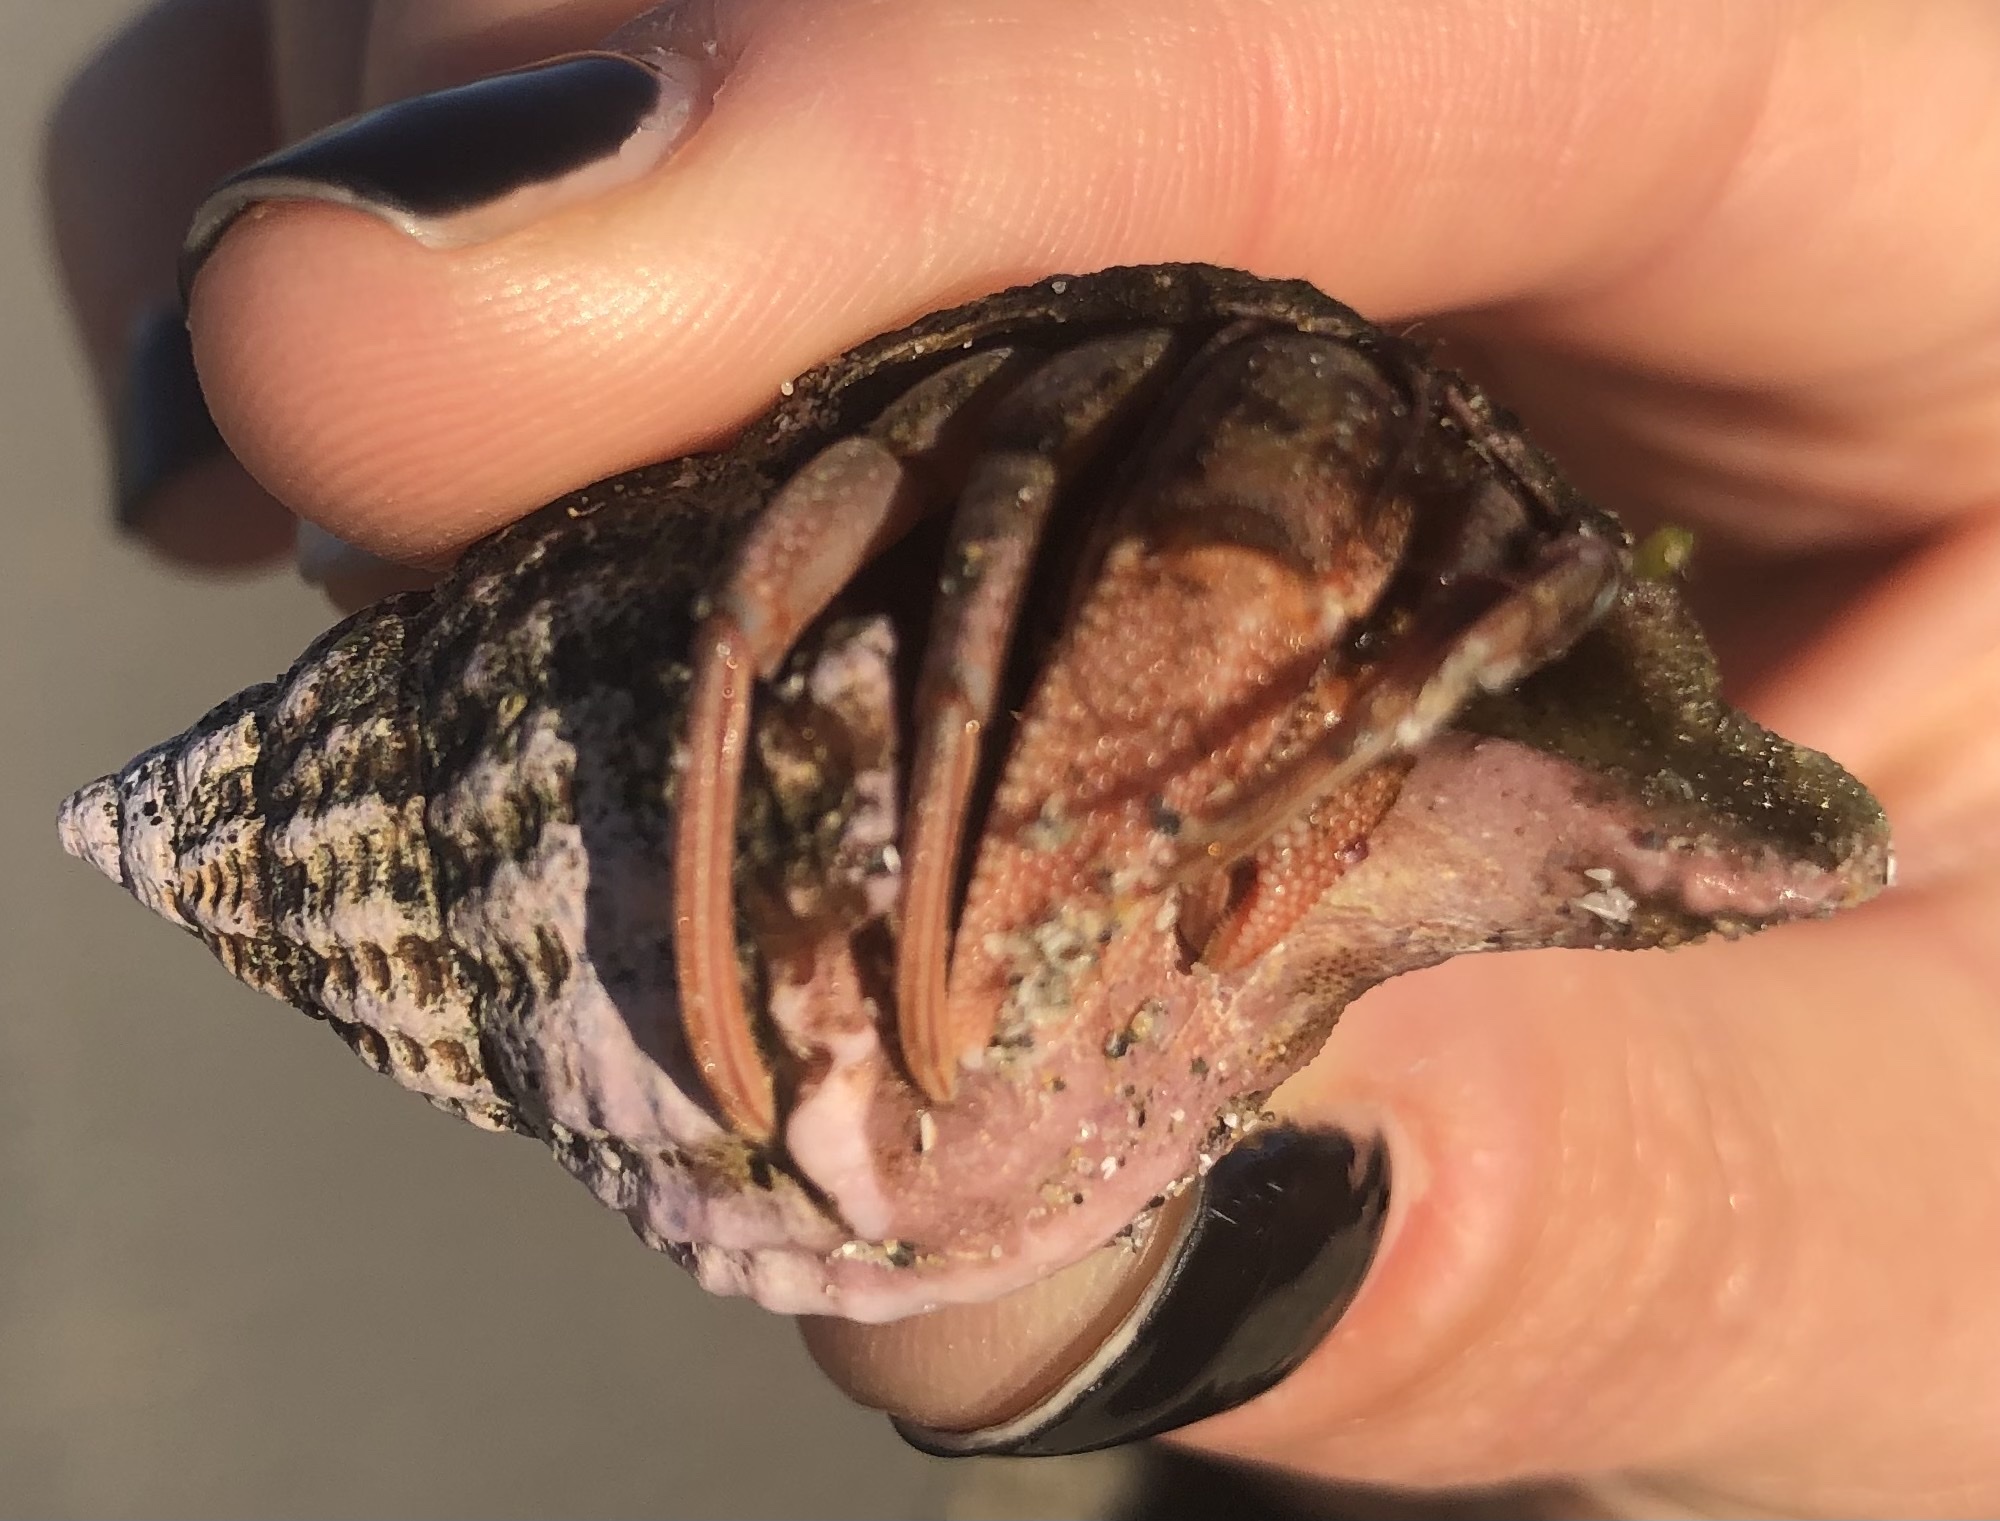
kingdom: Animalia
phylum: Arthropoda
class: Malacostraca
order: Decapoda
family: Paguridae
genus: Pagurus
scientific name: Pagurus perlatus
